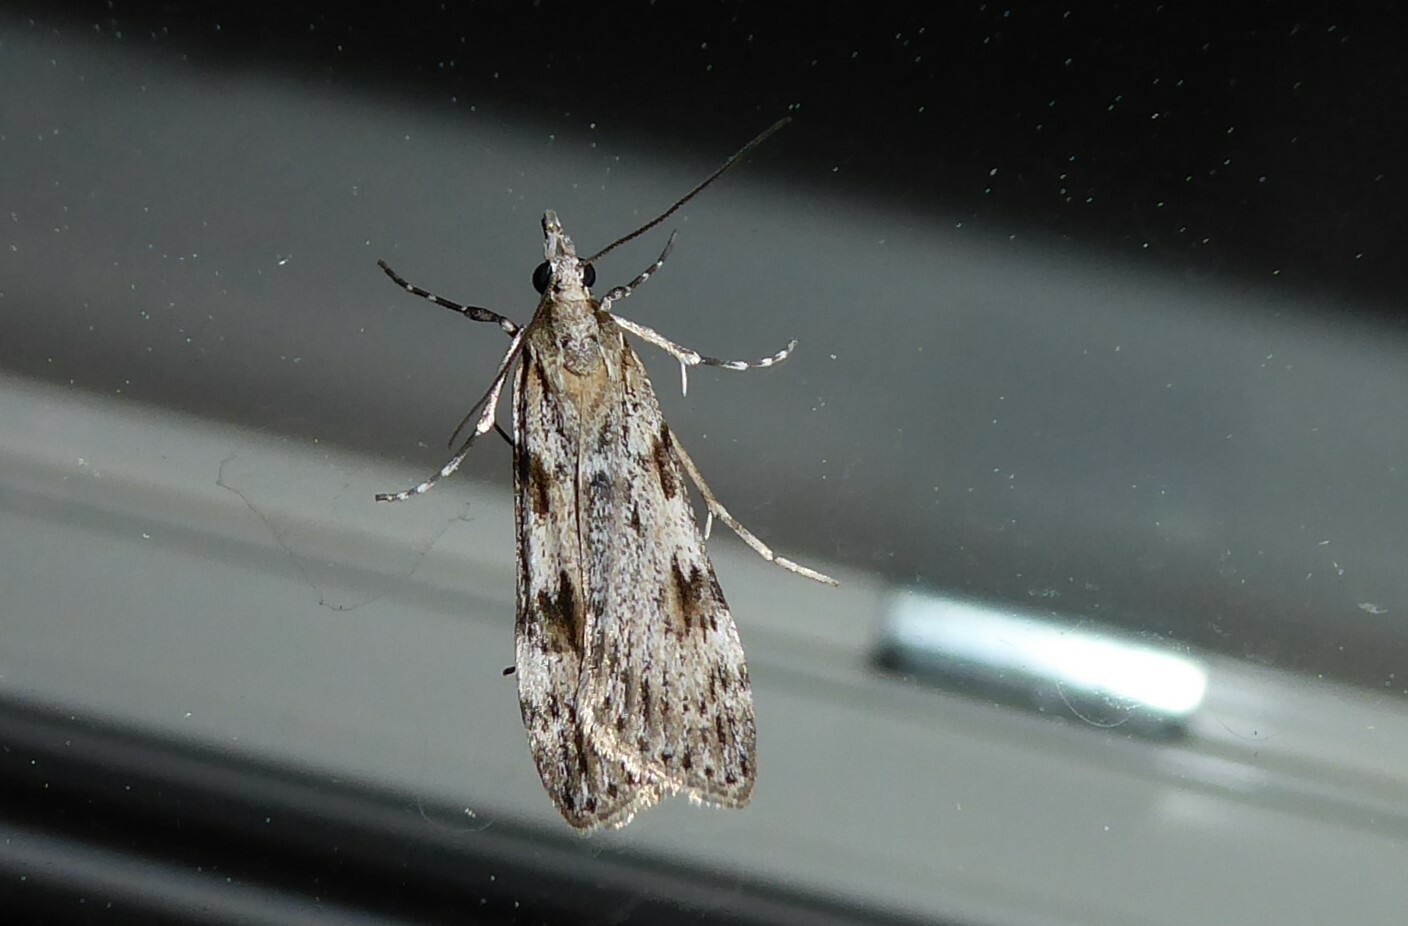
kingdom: Animalia
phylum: Arthropoda
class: Insecta
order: Lepidoptera
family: Crambidae
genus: Scoparia
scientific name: Scoparia halopis
